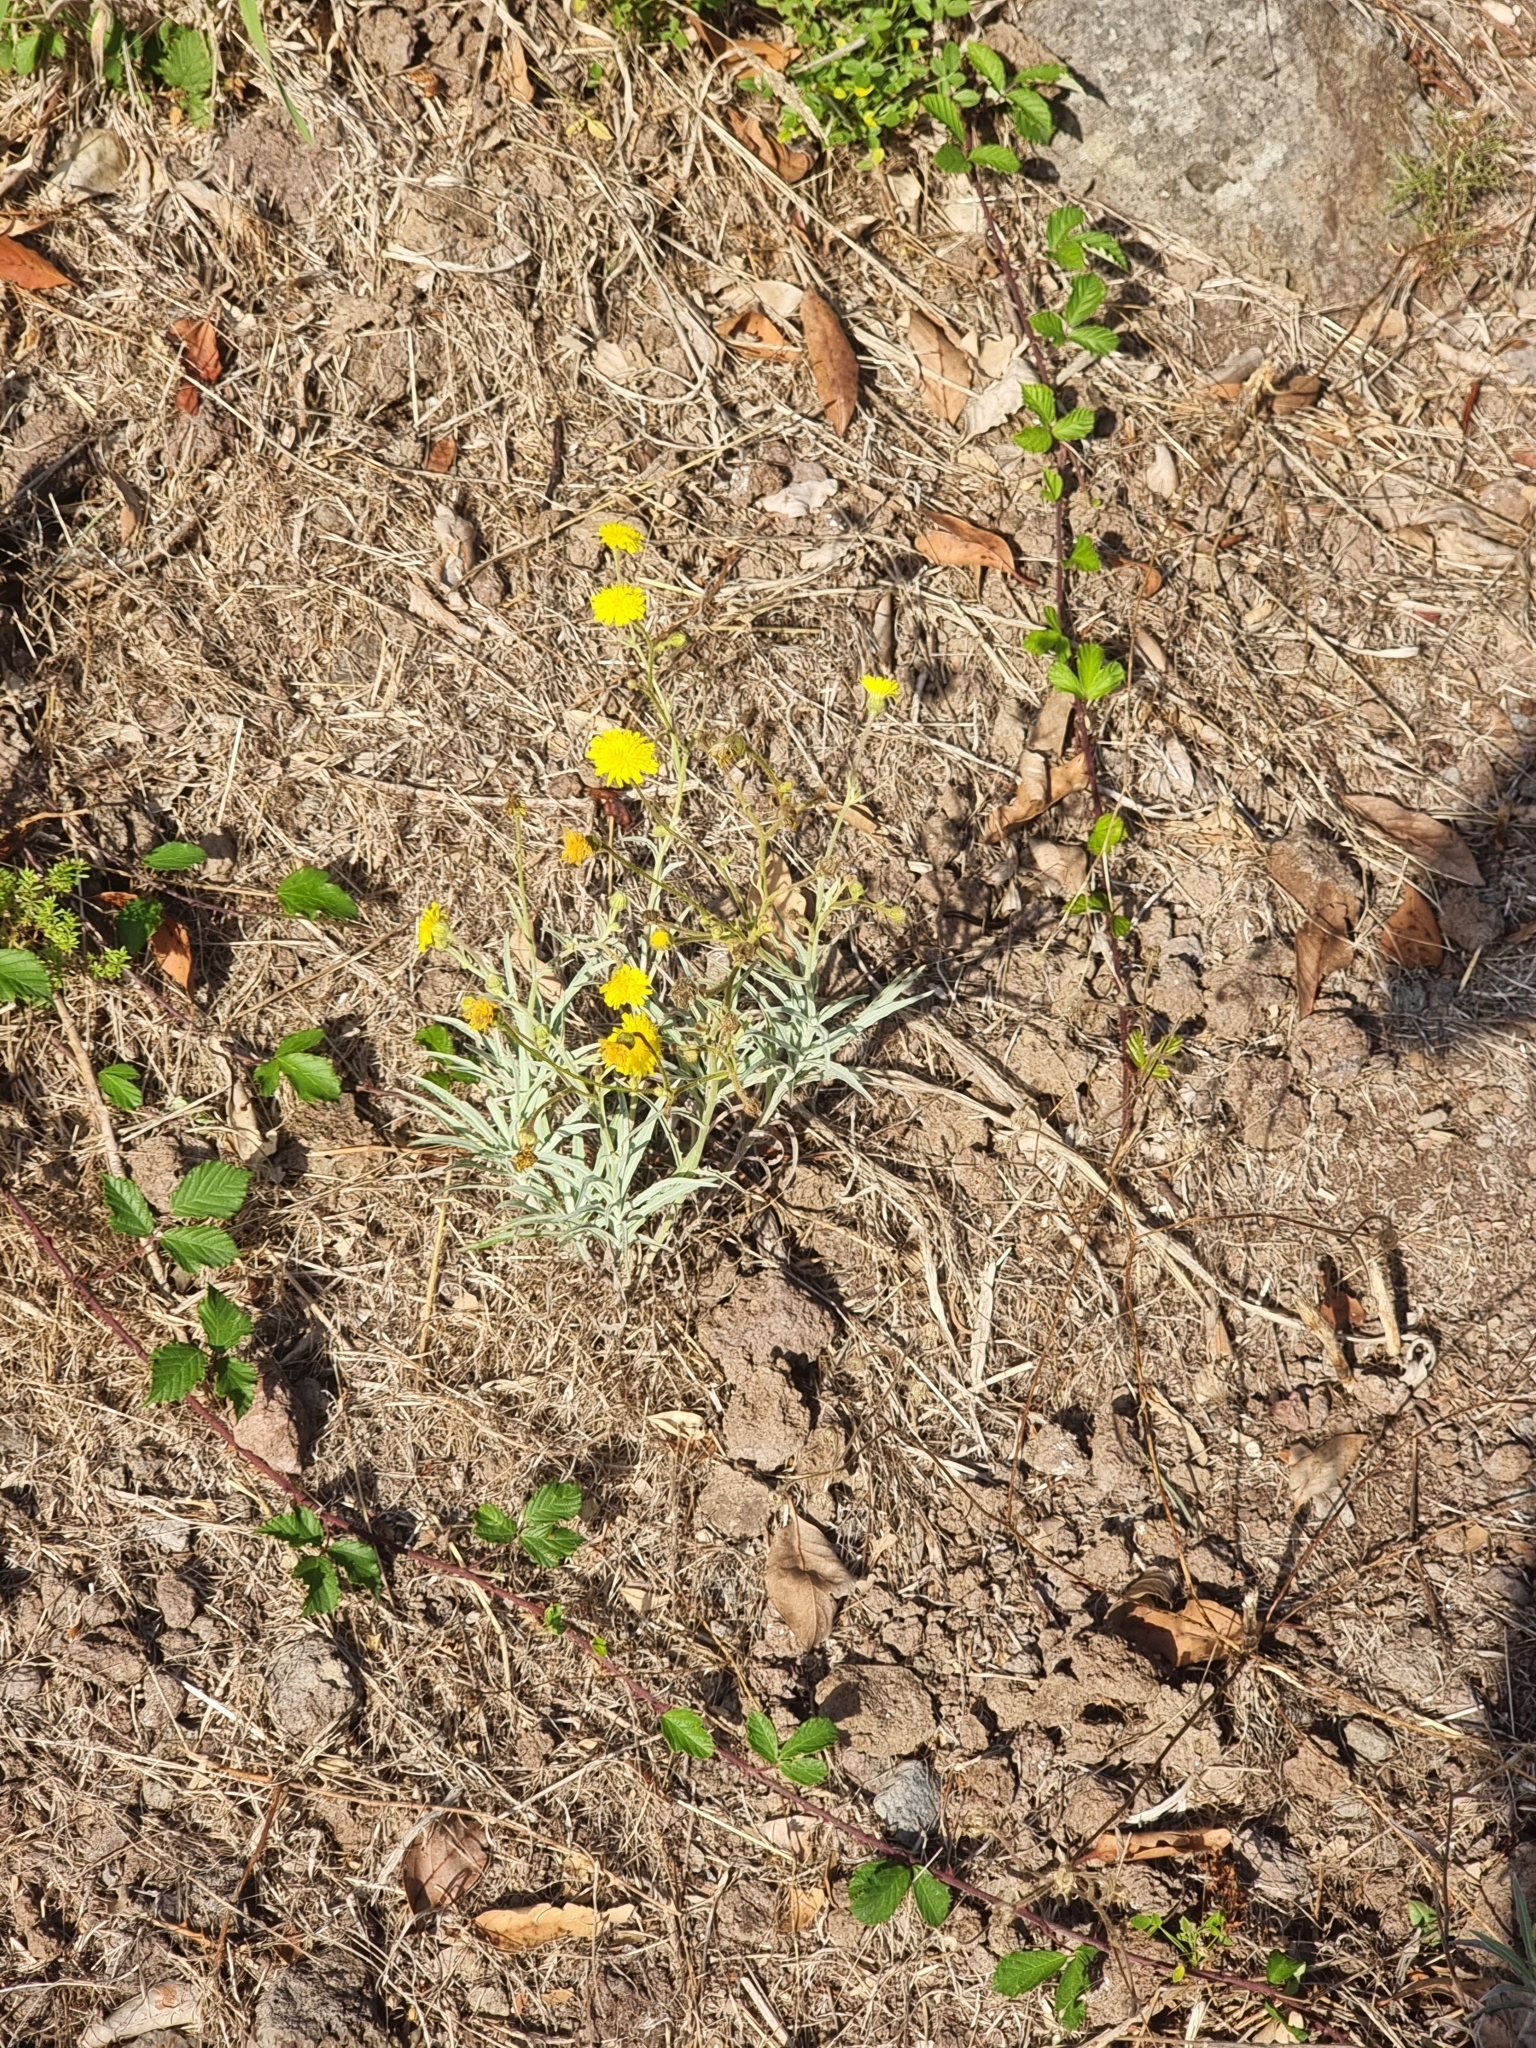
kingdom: Plantae
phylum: Tracheophyta
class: Magnoliopsida
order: Asterales
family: Asteraceae
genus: Andryala
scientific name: Andryala glandulosa
